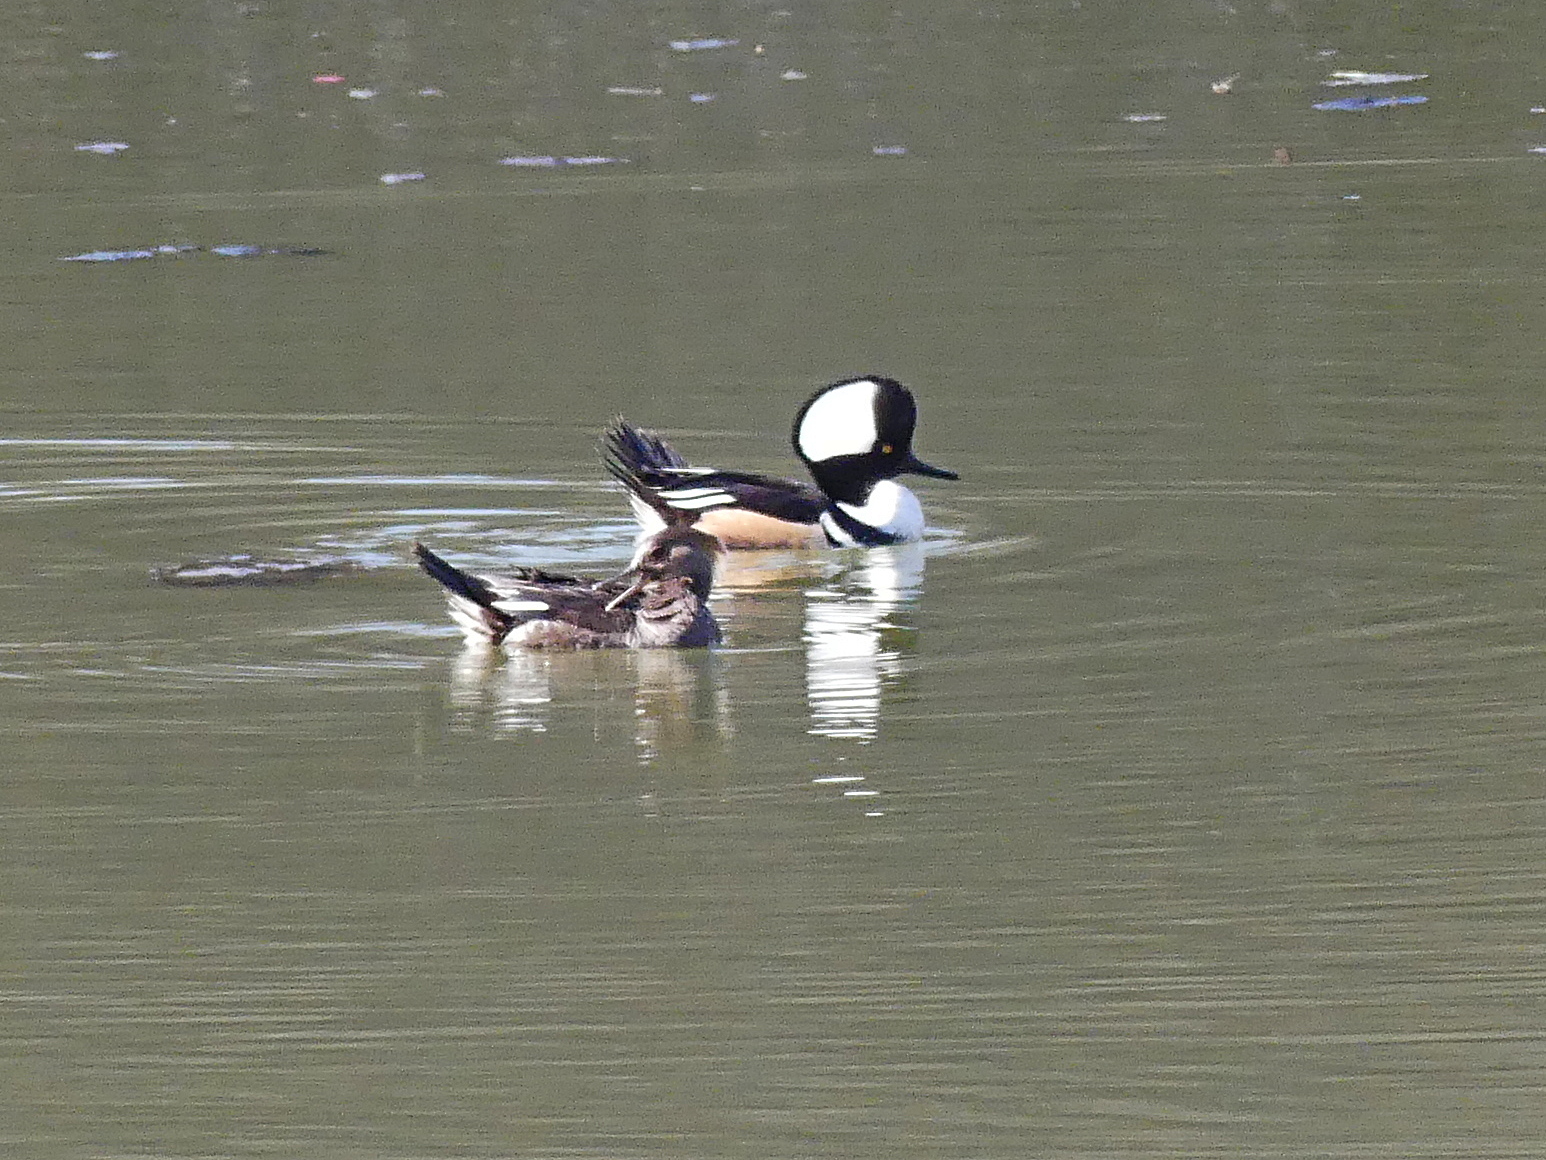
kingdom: Animalia
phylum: Chordata
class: Aves
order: Anseriformes
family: Anatidae
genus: Lophodytes
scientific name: Lophodytes cucullatus
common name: Hooded merganser
